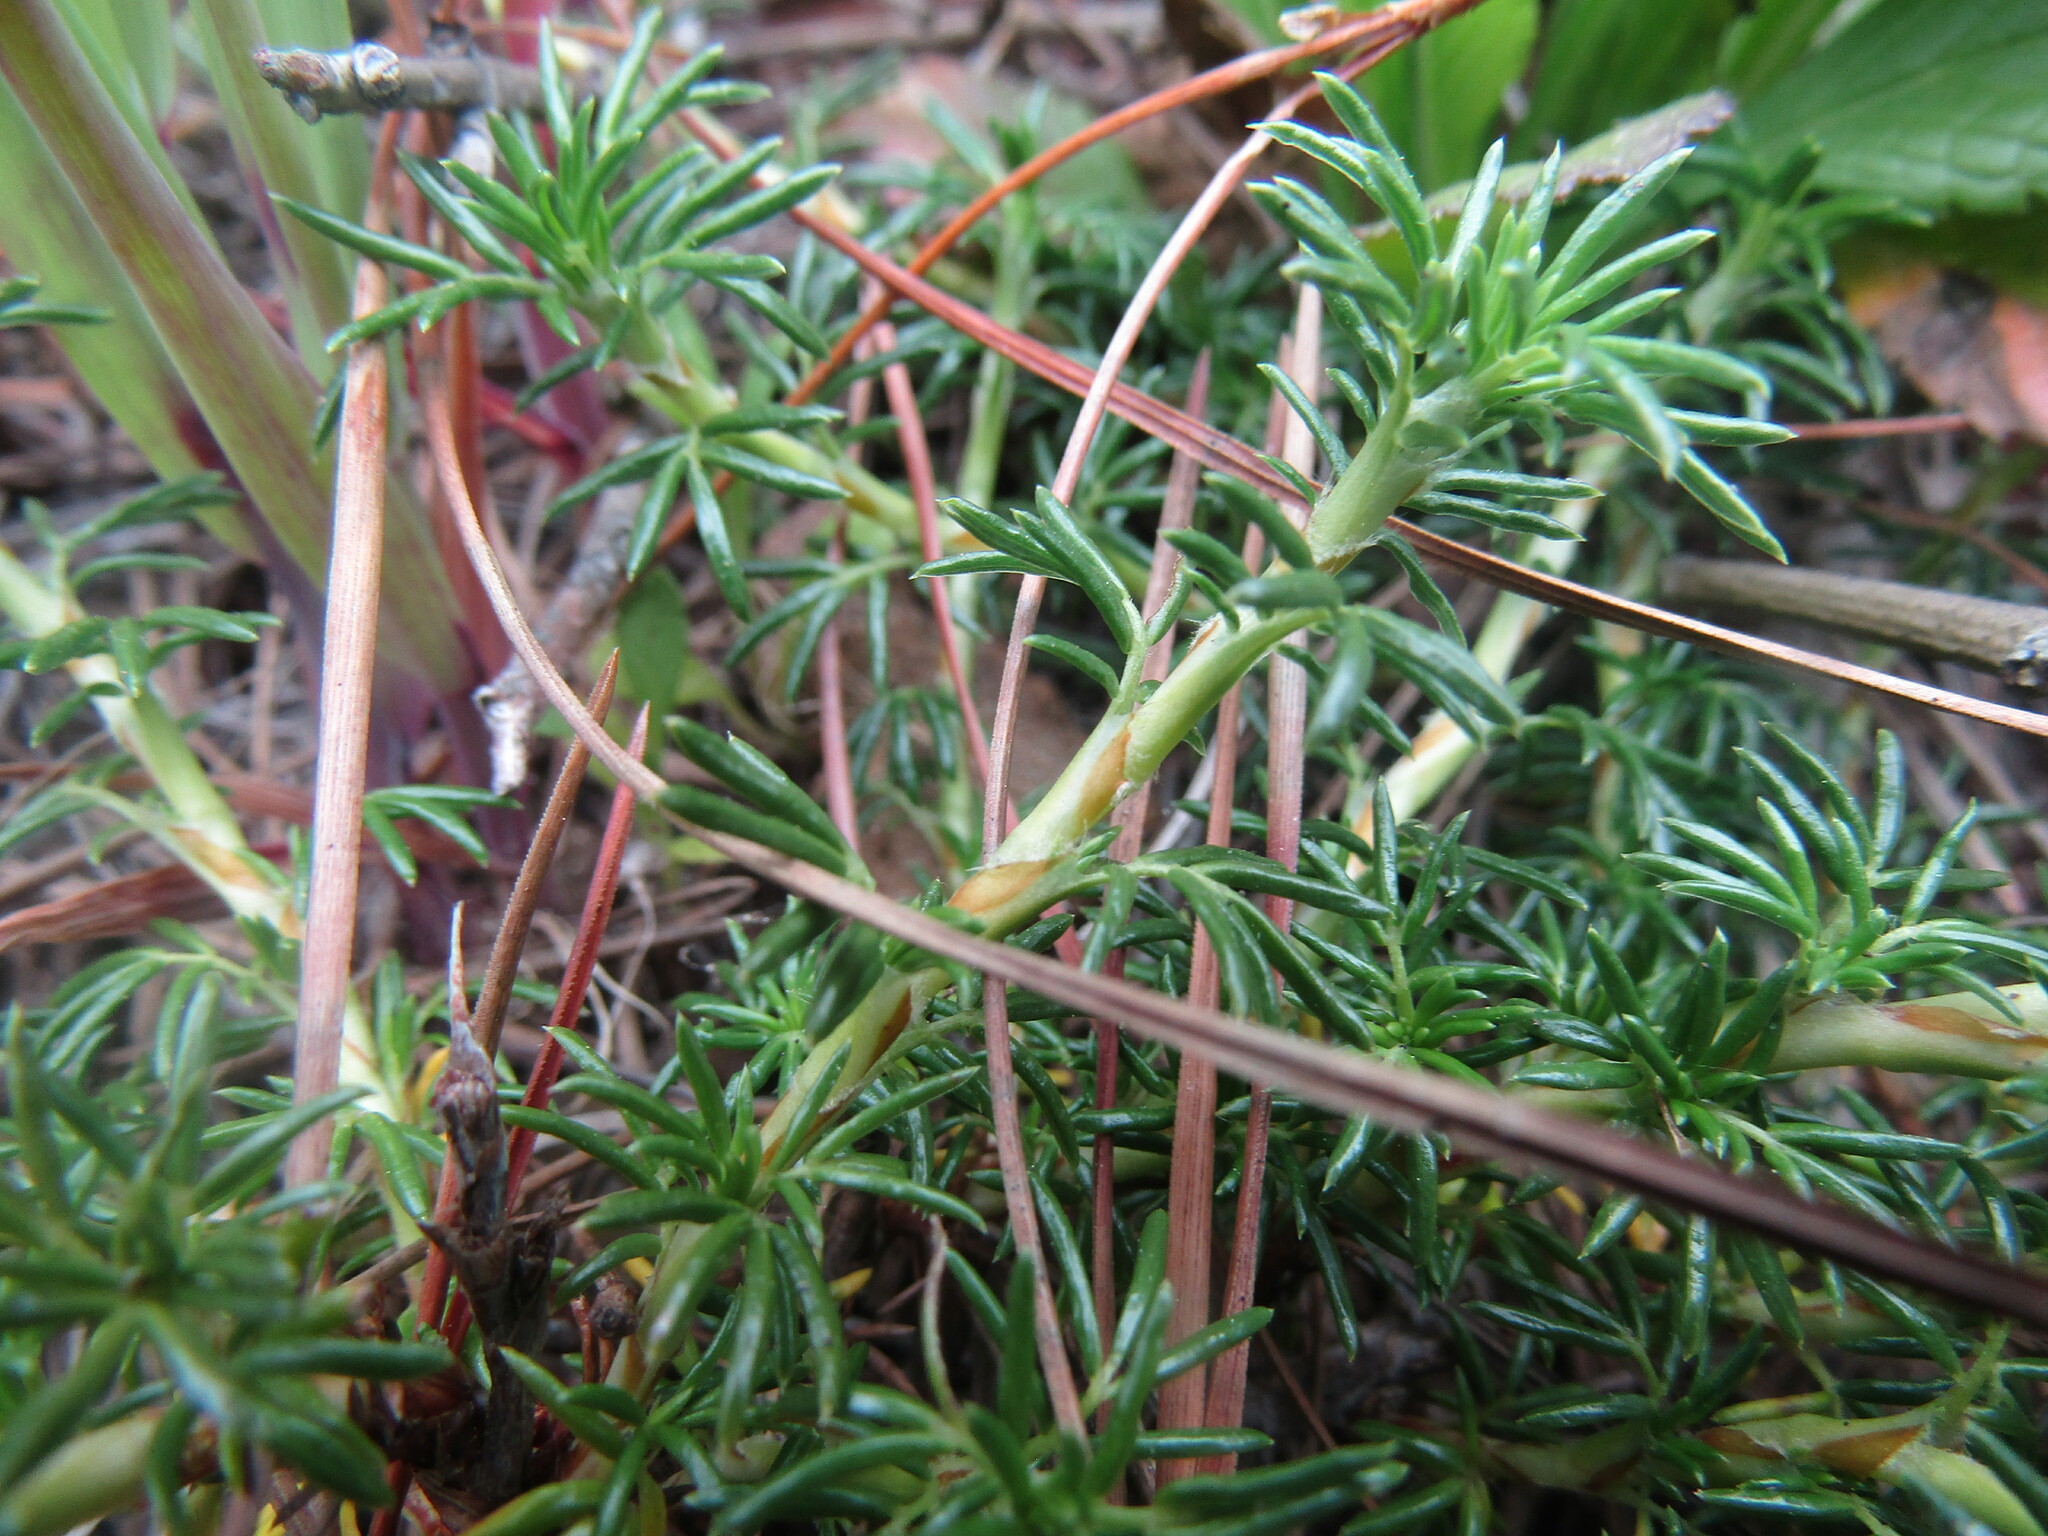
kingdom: Plantae
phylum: Tracheophyta
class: Magnoliopsida
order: Rosales
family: Rosaceae
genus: Margyricarpus
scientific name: Margyricarpus pinnatus
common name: Pearlfruit
